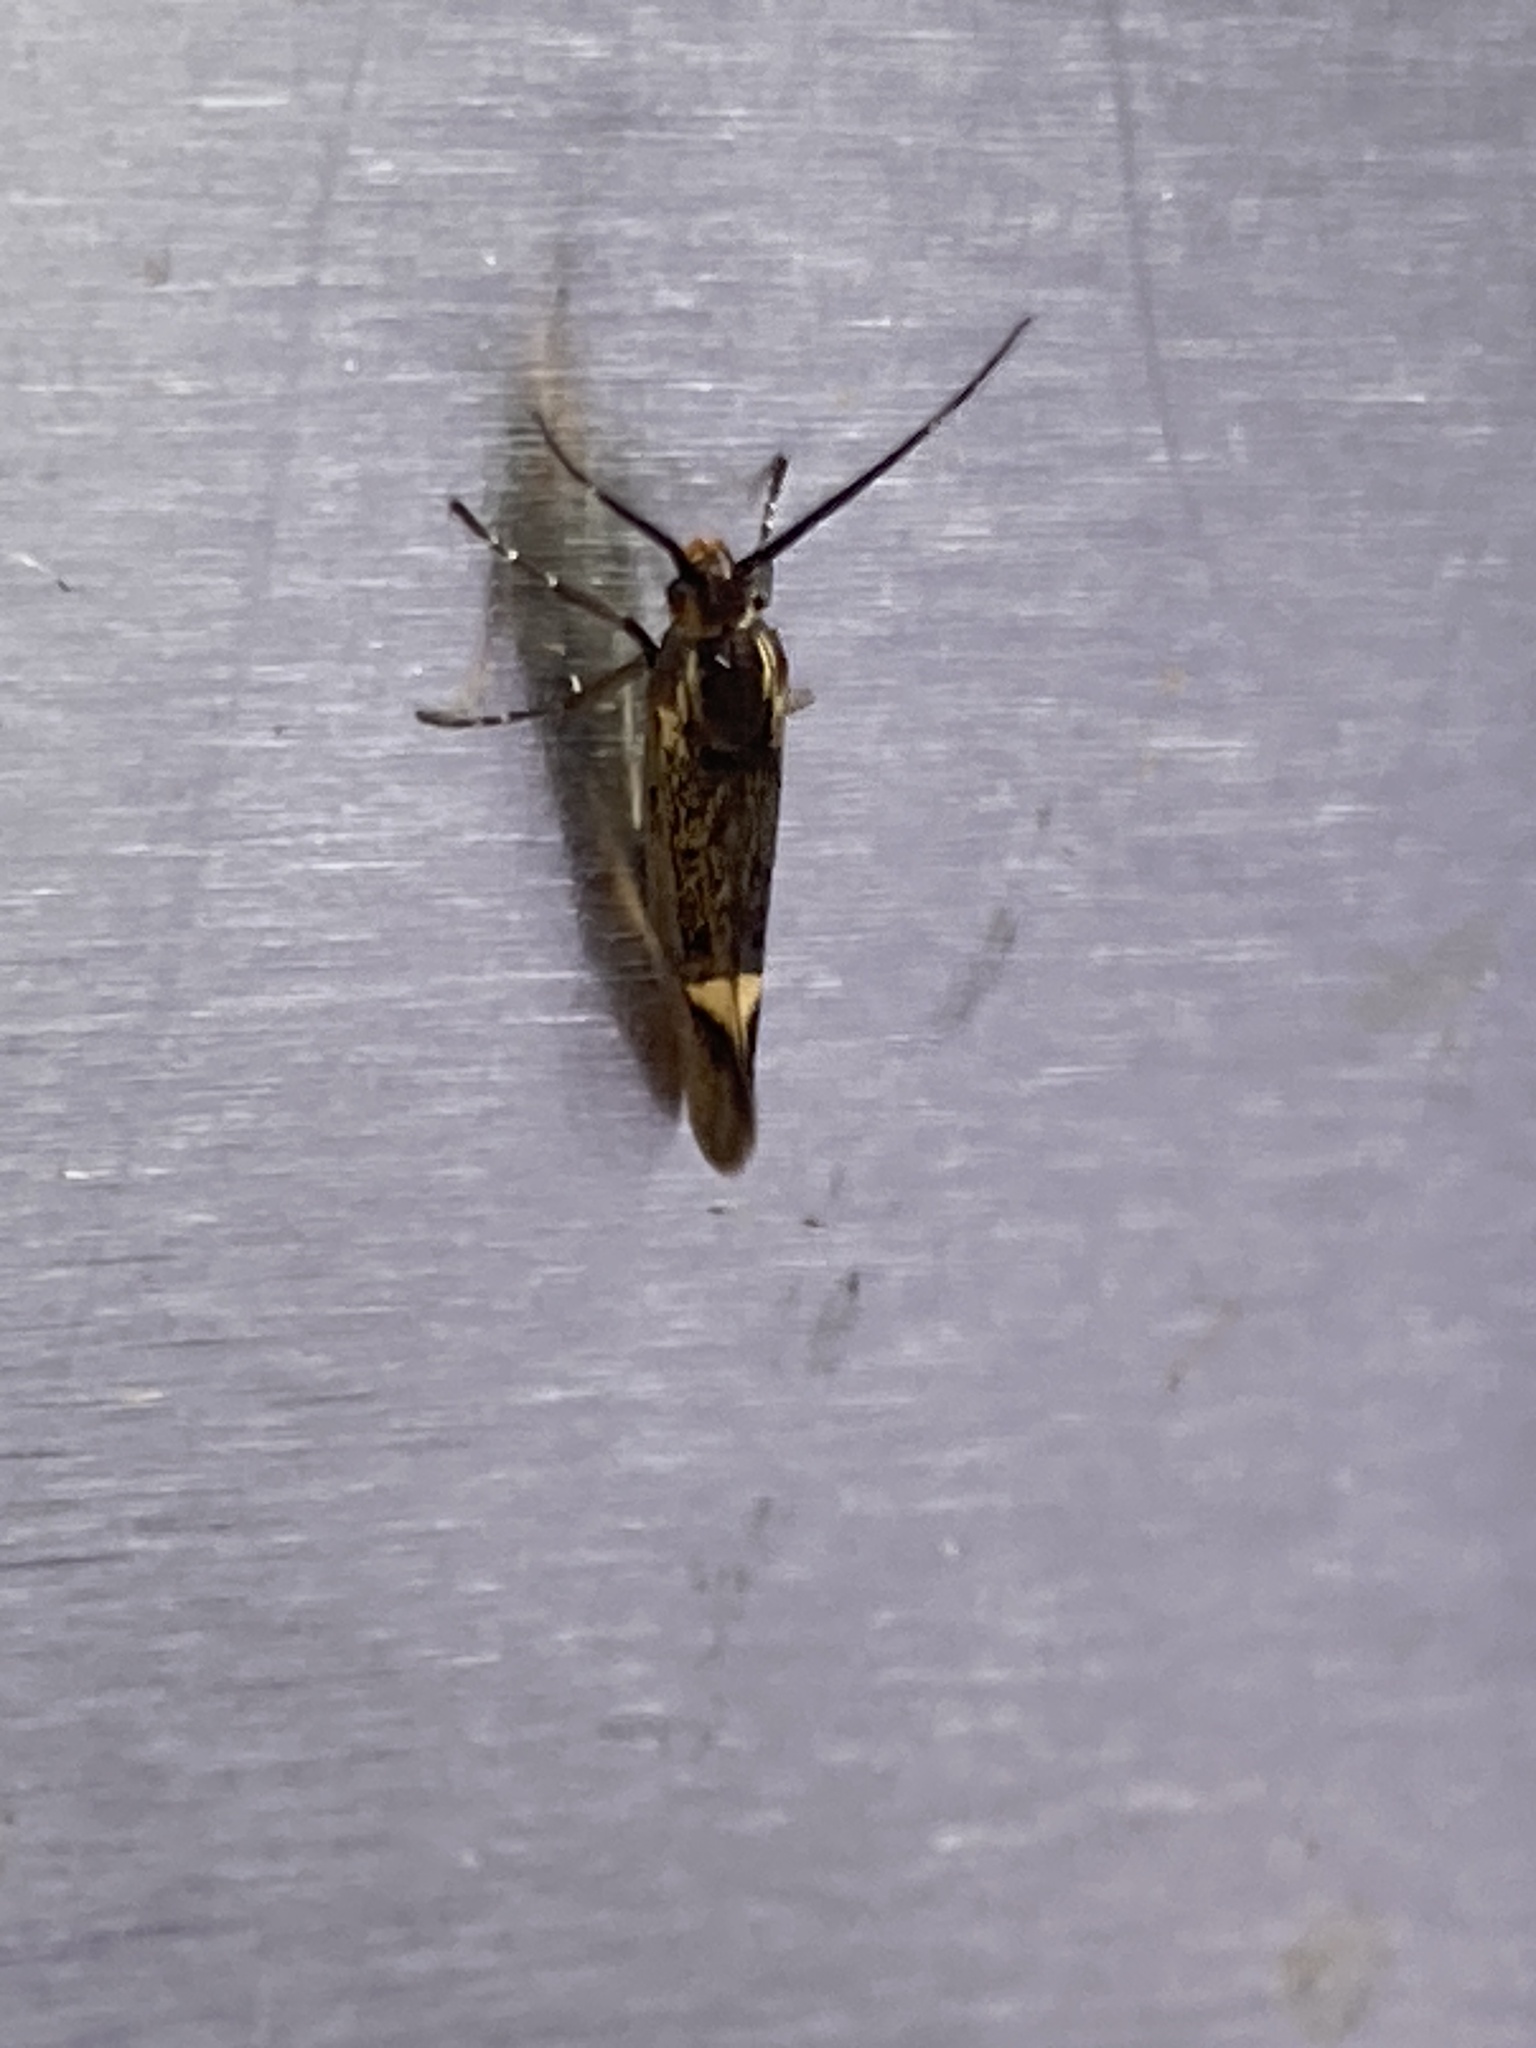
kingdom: Animalia
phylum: Arthropoda
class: Insecta
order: Lepidoptera
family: Oecophoridae
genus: Dafa
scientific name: Dafa Esperia sulphurella
